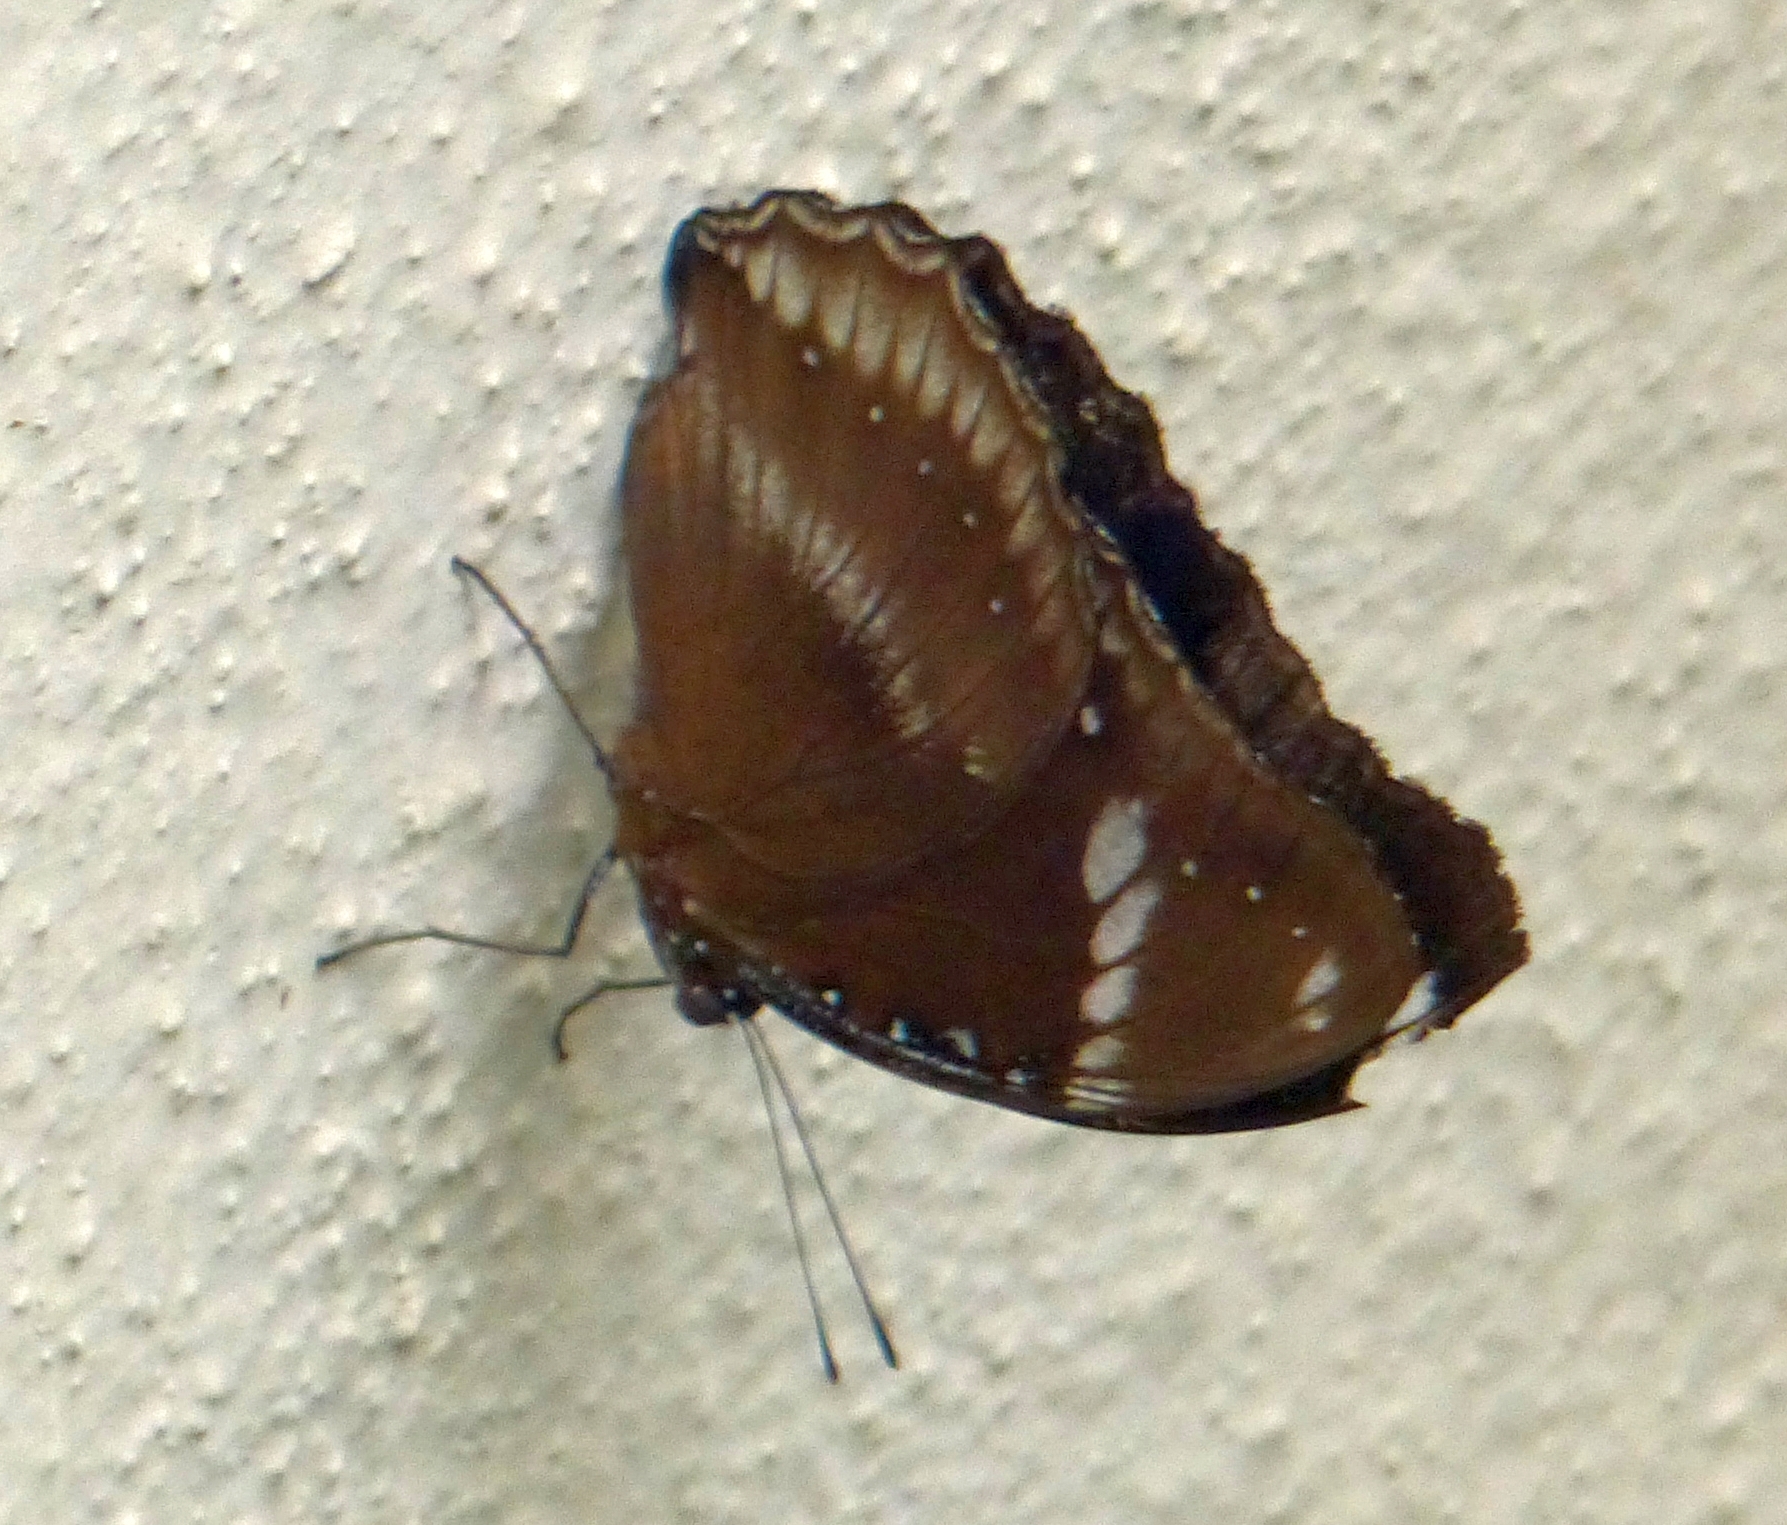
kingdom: Animalia
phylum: Arthropoda
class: Insecta
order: Lepidoptera
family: Nymphalidae
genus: Hypolimnas
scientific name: Hypolimnas bolina
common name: Great eggfly
